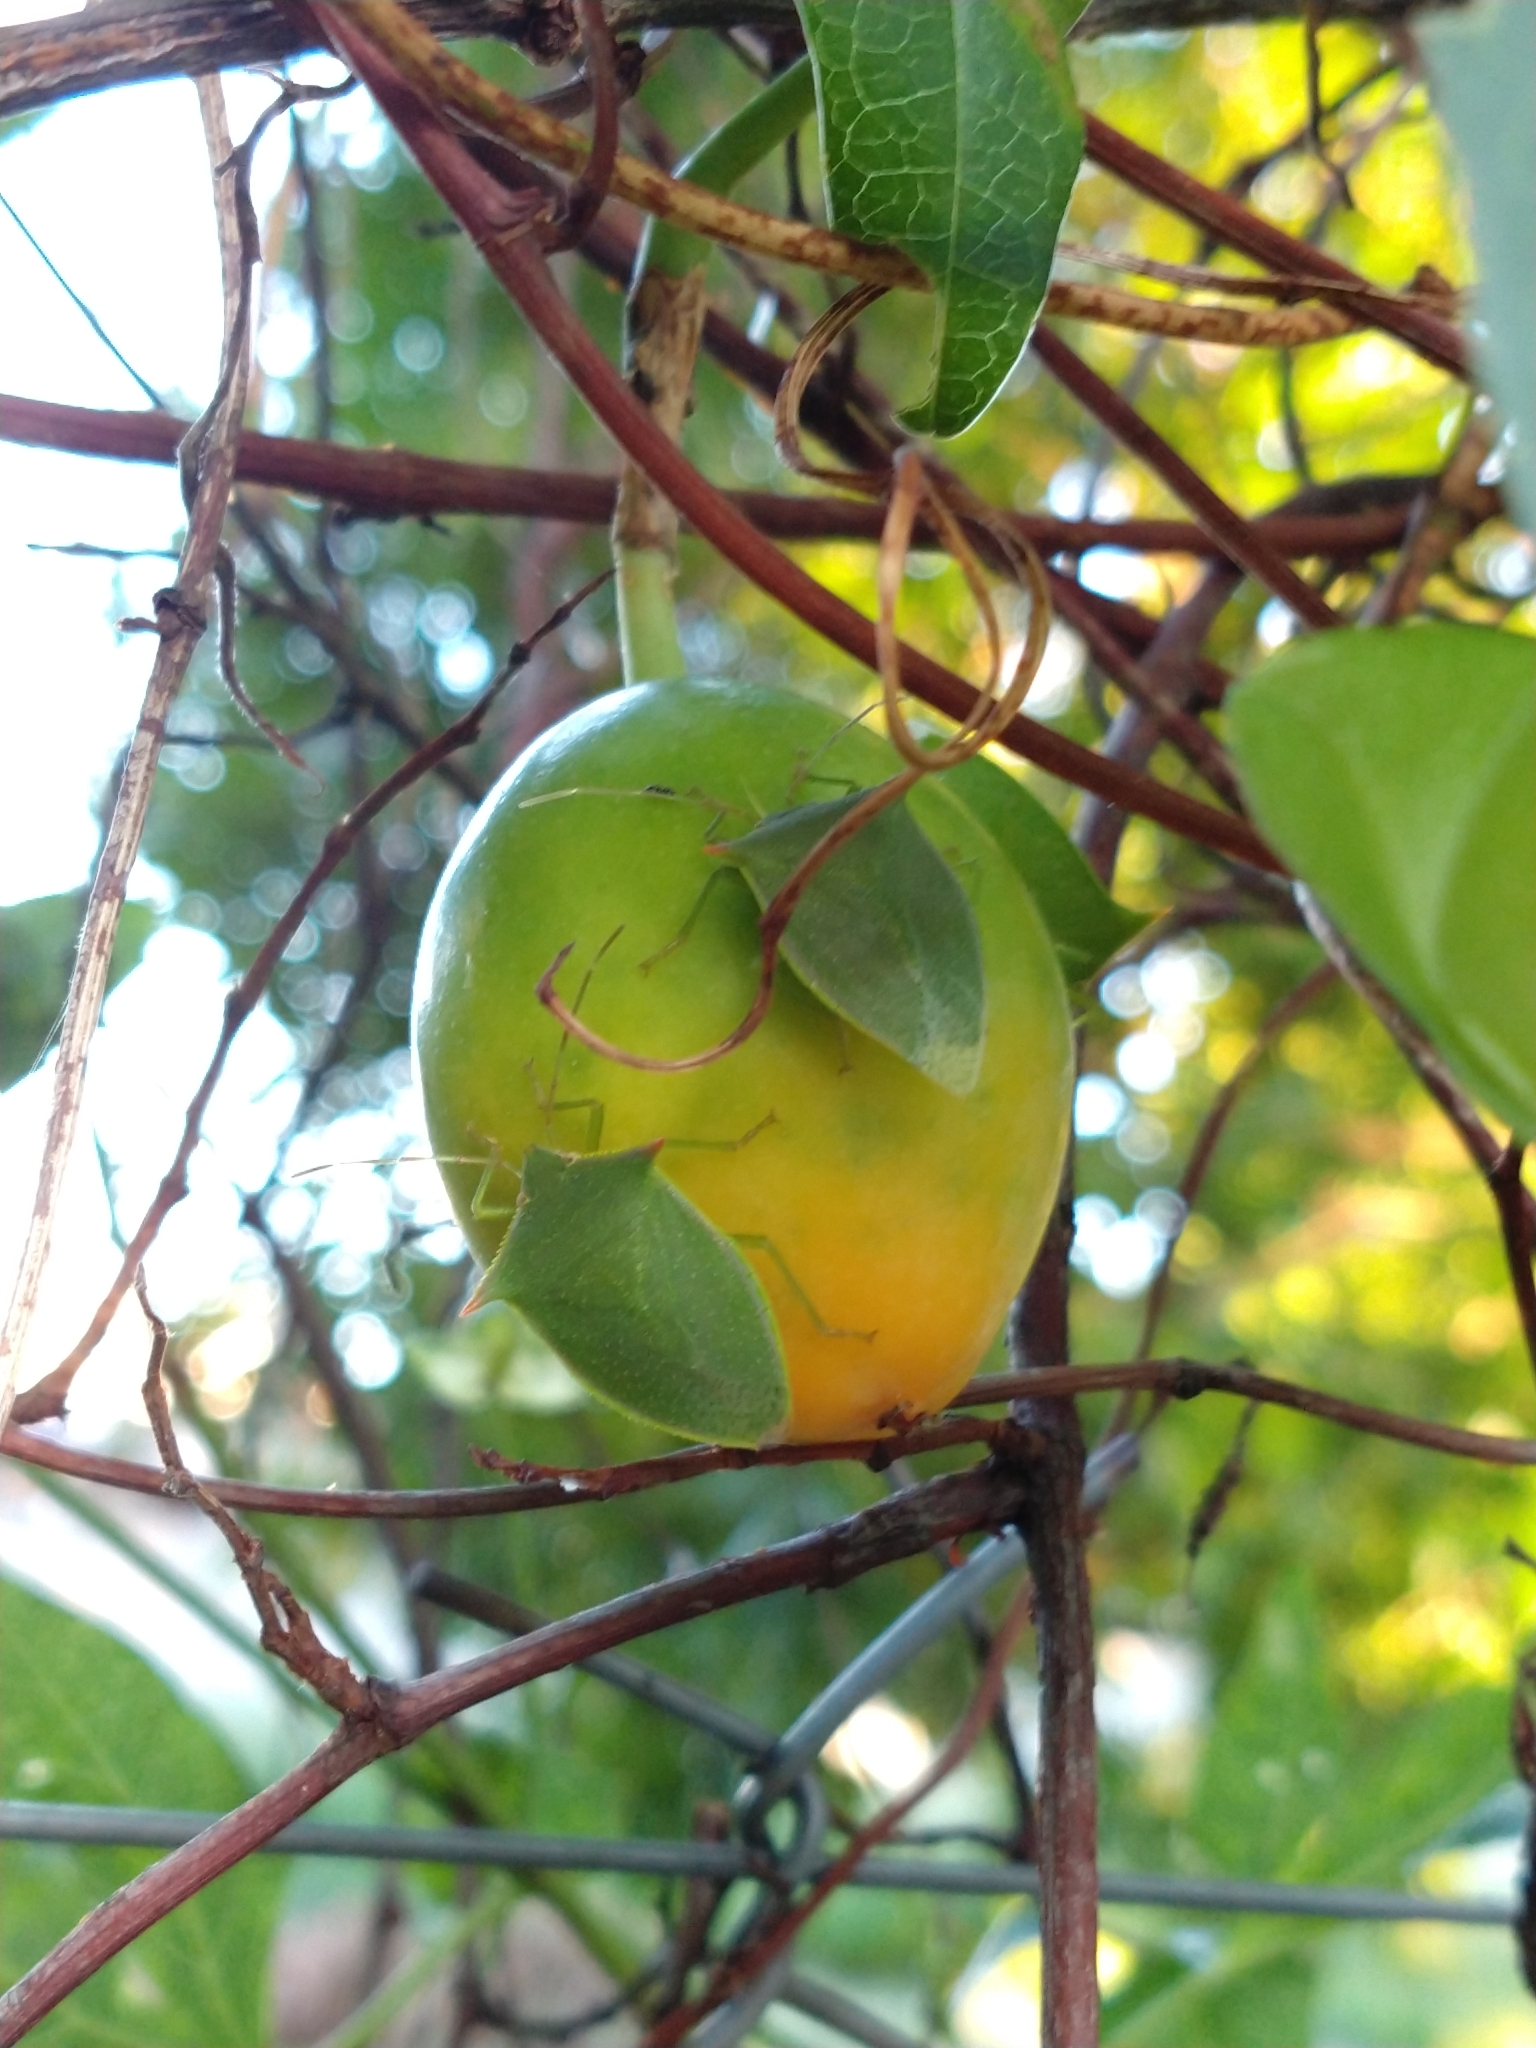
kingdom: Animalia
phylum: Arthropoda
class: Insecta
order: Hemiptera
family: Pentatomidae
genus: Loxa
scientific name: Loxa deducta
